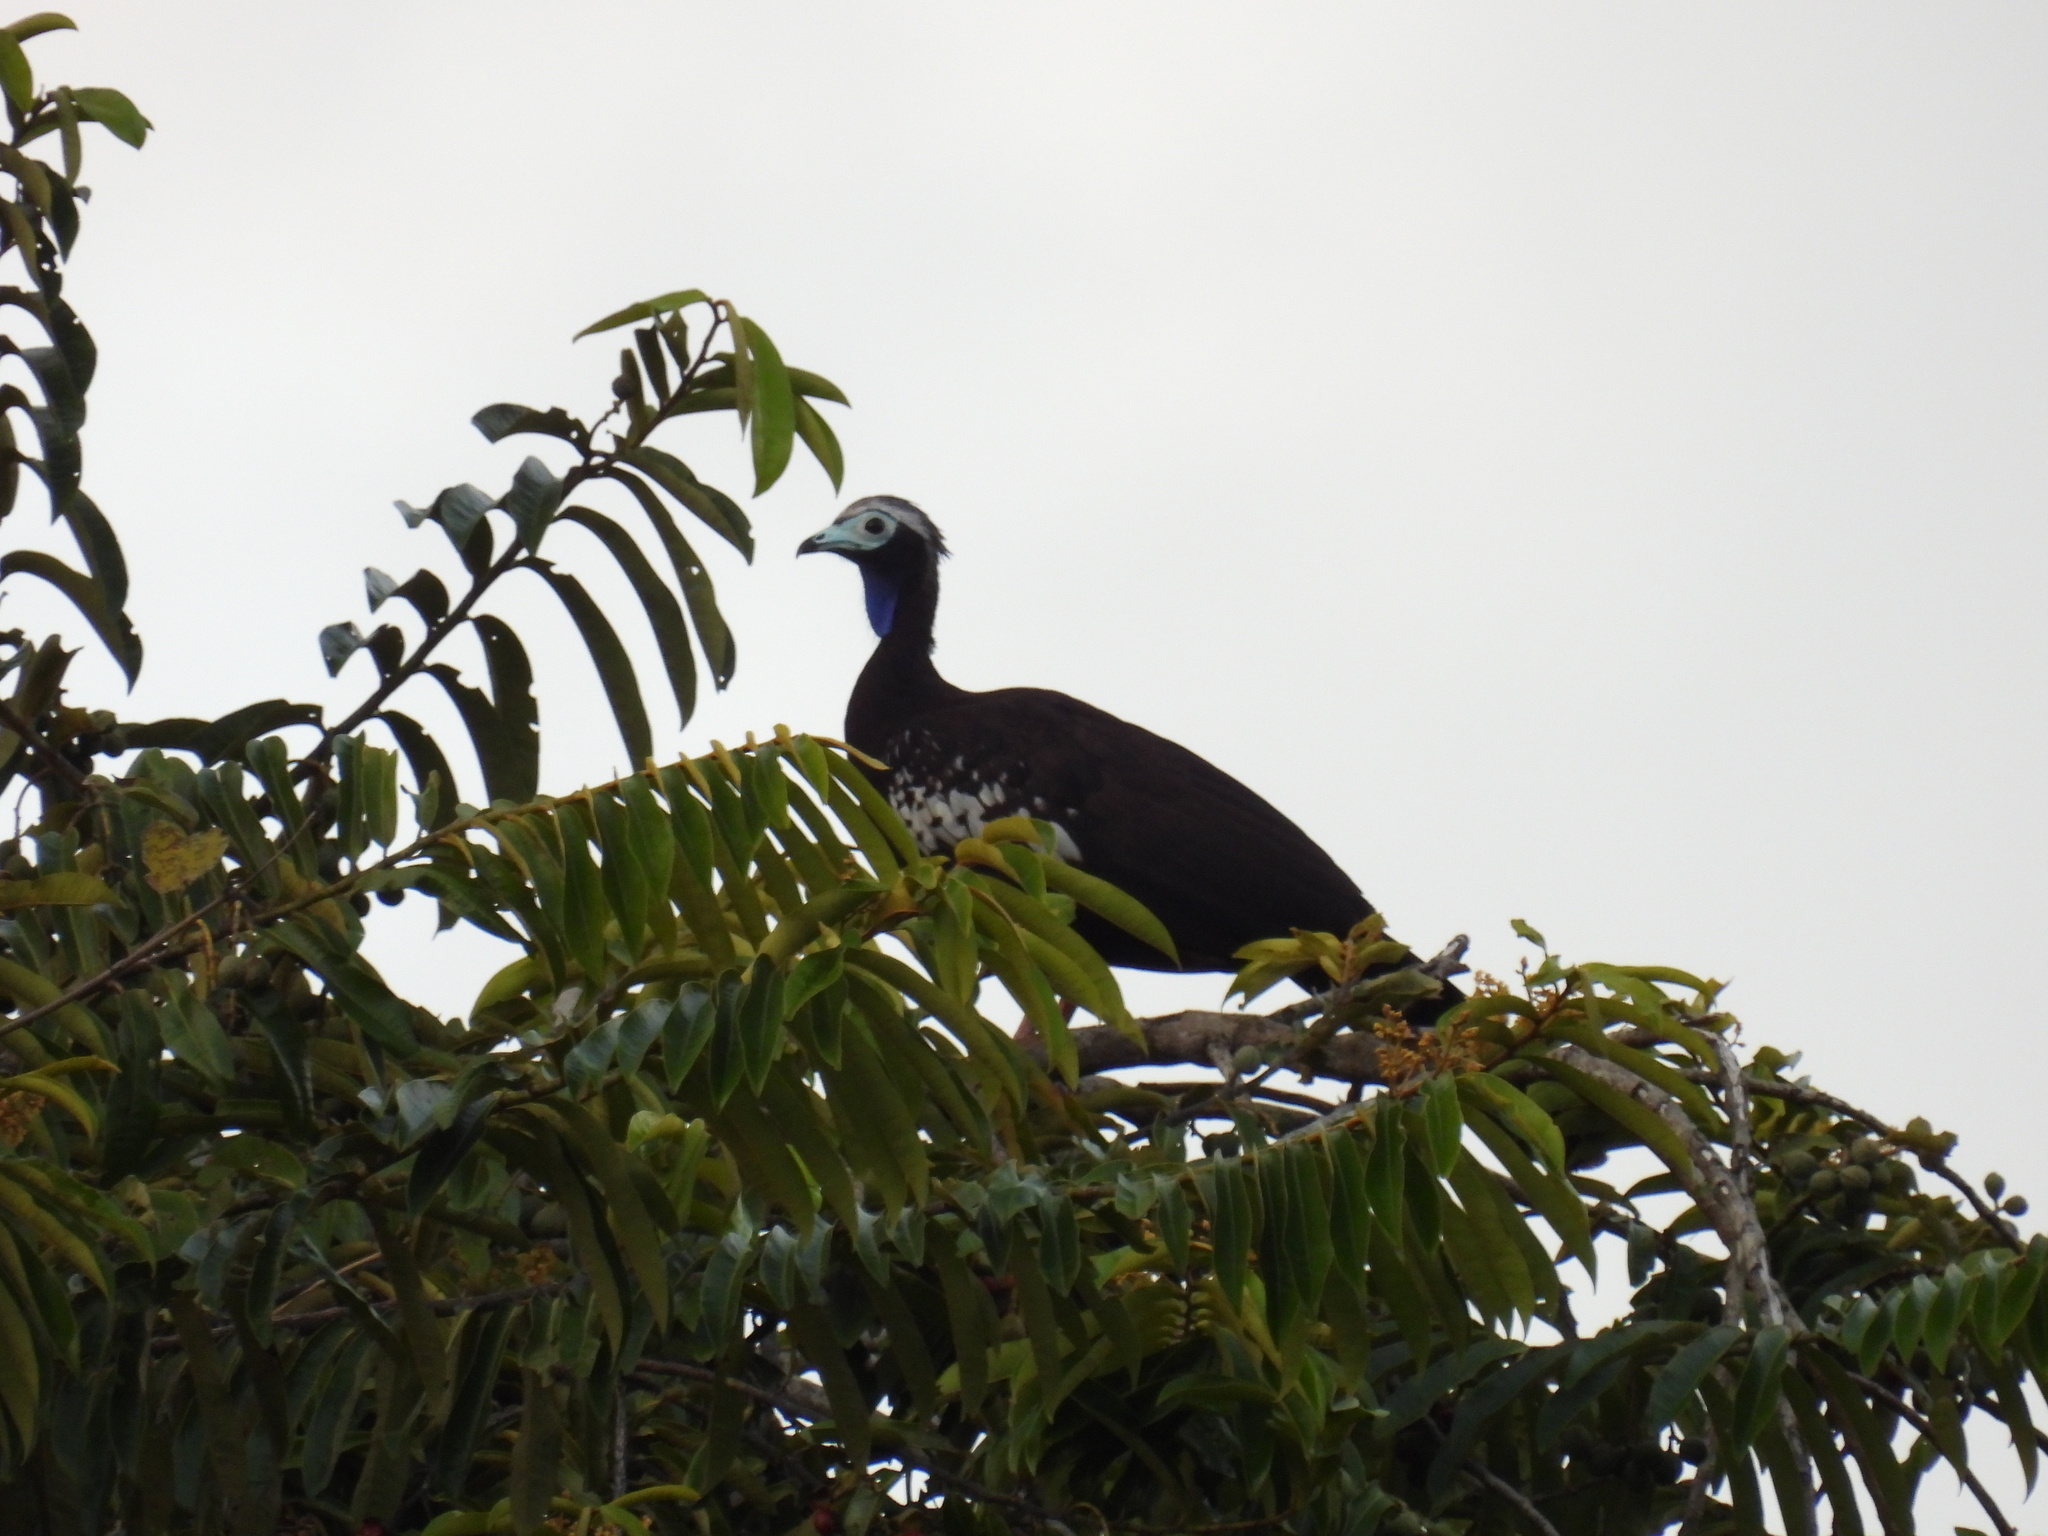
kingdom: Animalia
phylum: Chordata
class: Aves
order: Galliformes
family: Cracidae
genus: Pipile
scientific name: Pipile pipile
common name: Trinidad piping-guan
